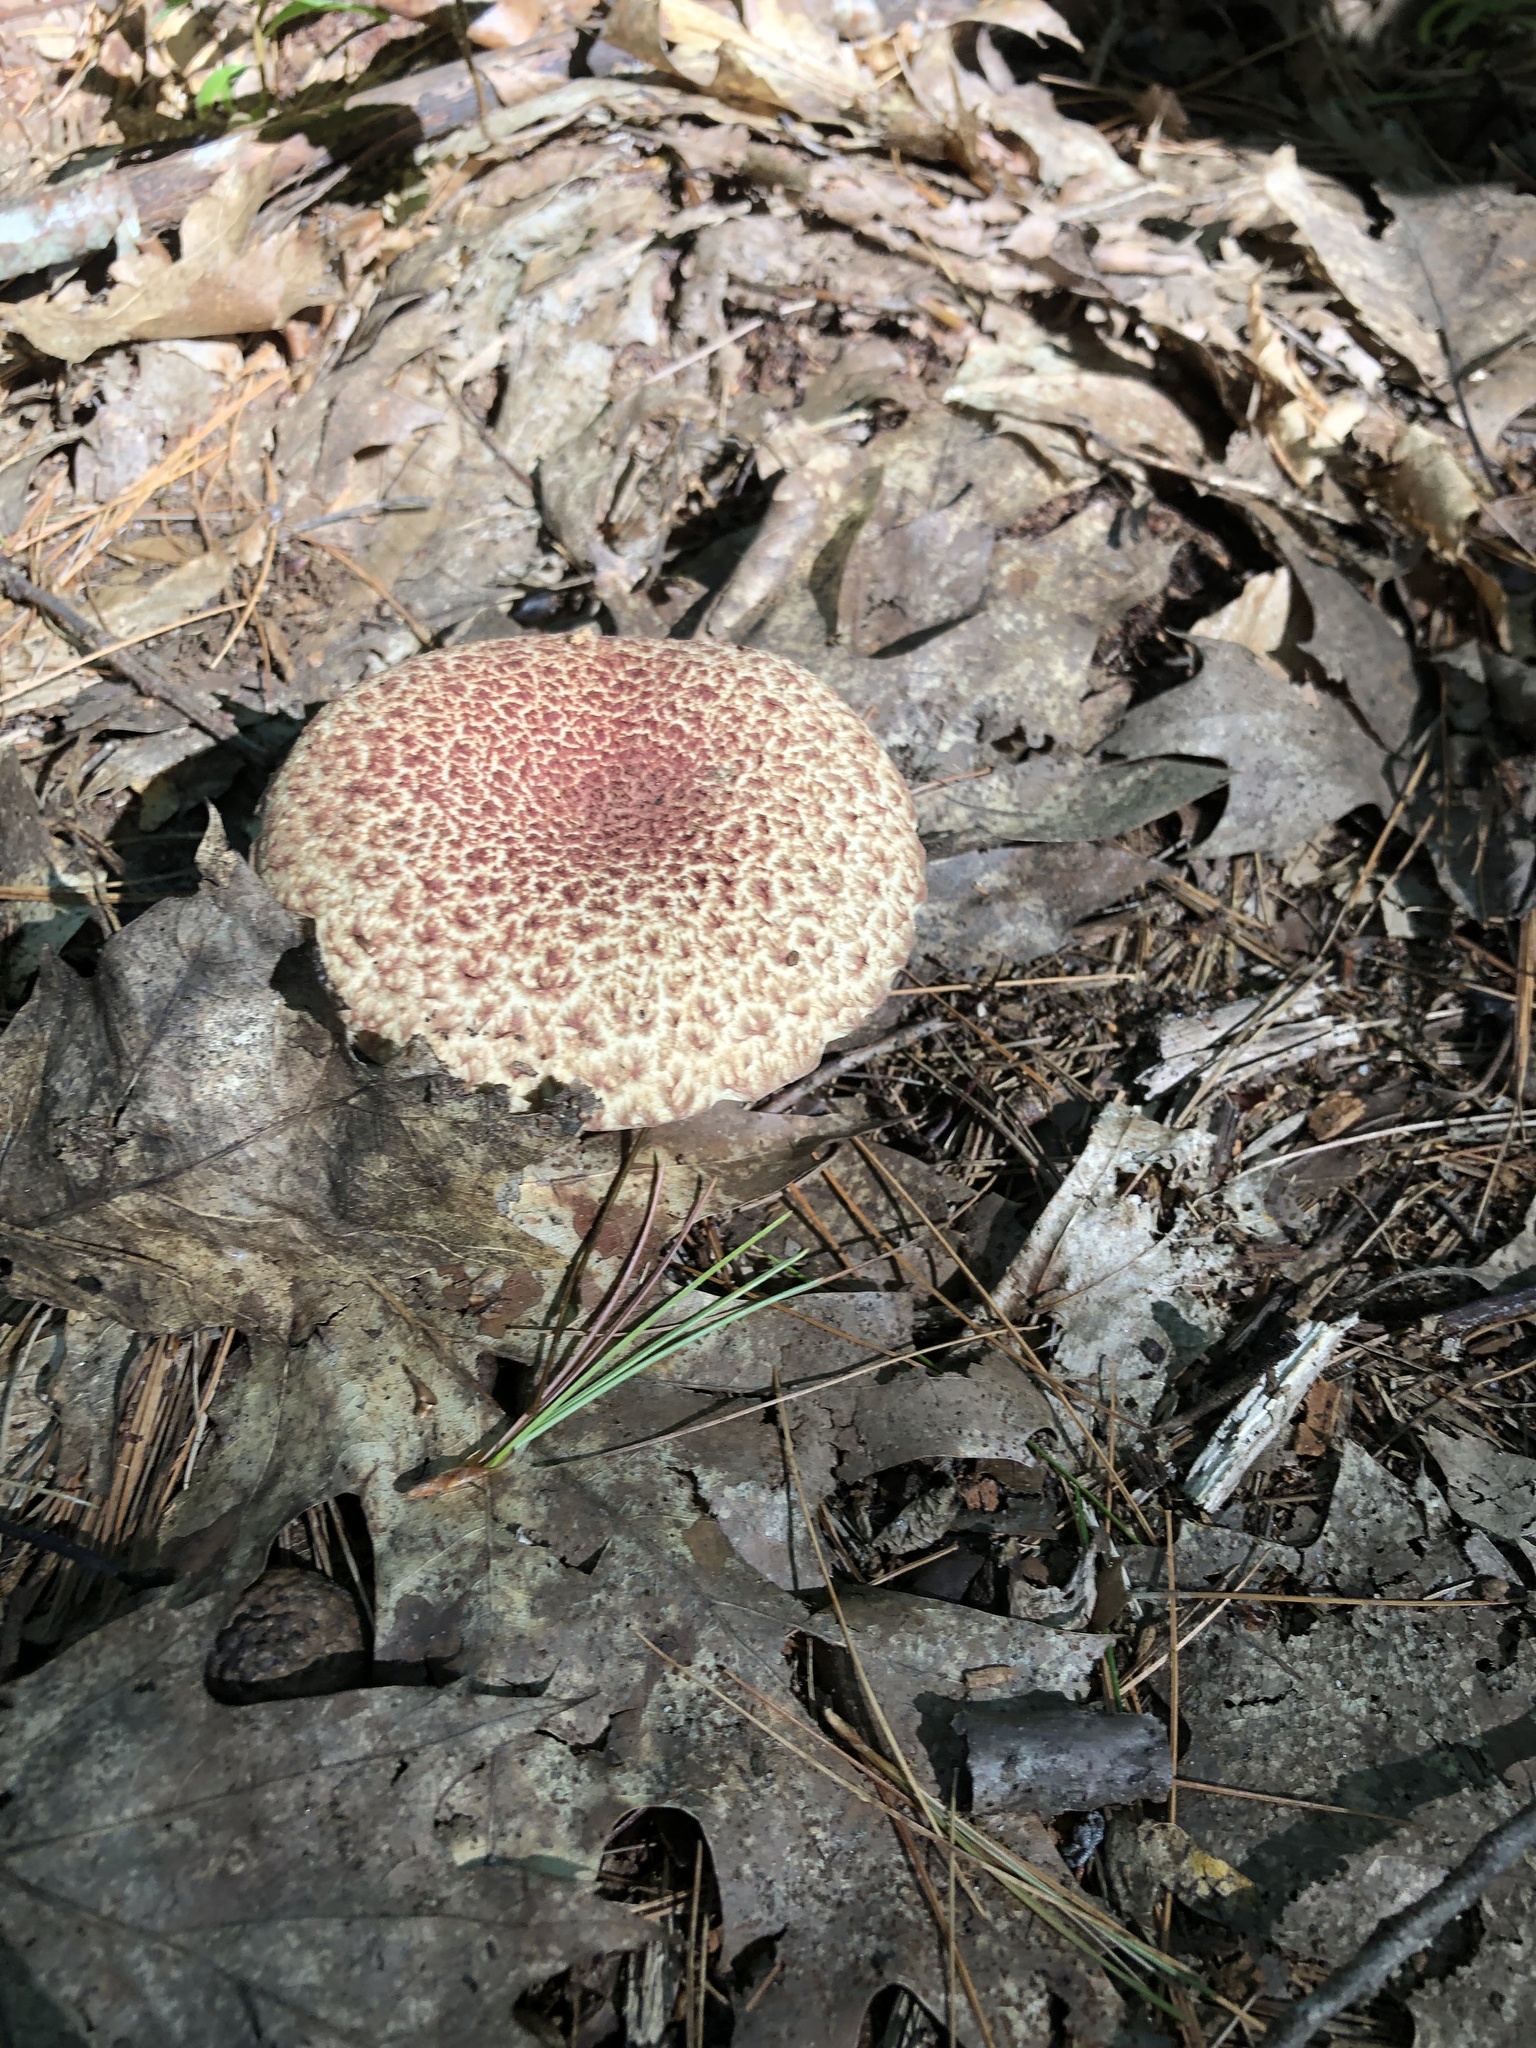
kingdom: Fungi
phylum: Basidiomycota
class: Agaricomycetes
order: Boletales
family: Suillaceae
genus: Suillus
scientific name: Suillus spraguei
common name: Painted suillus
